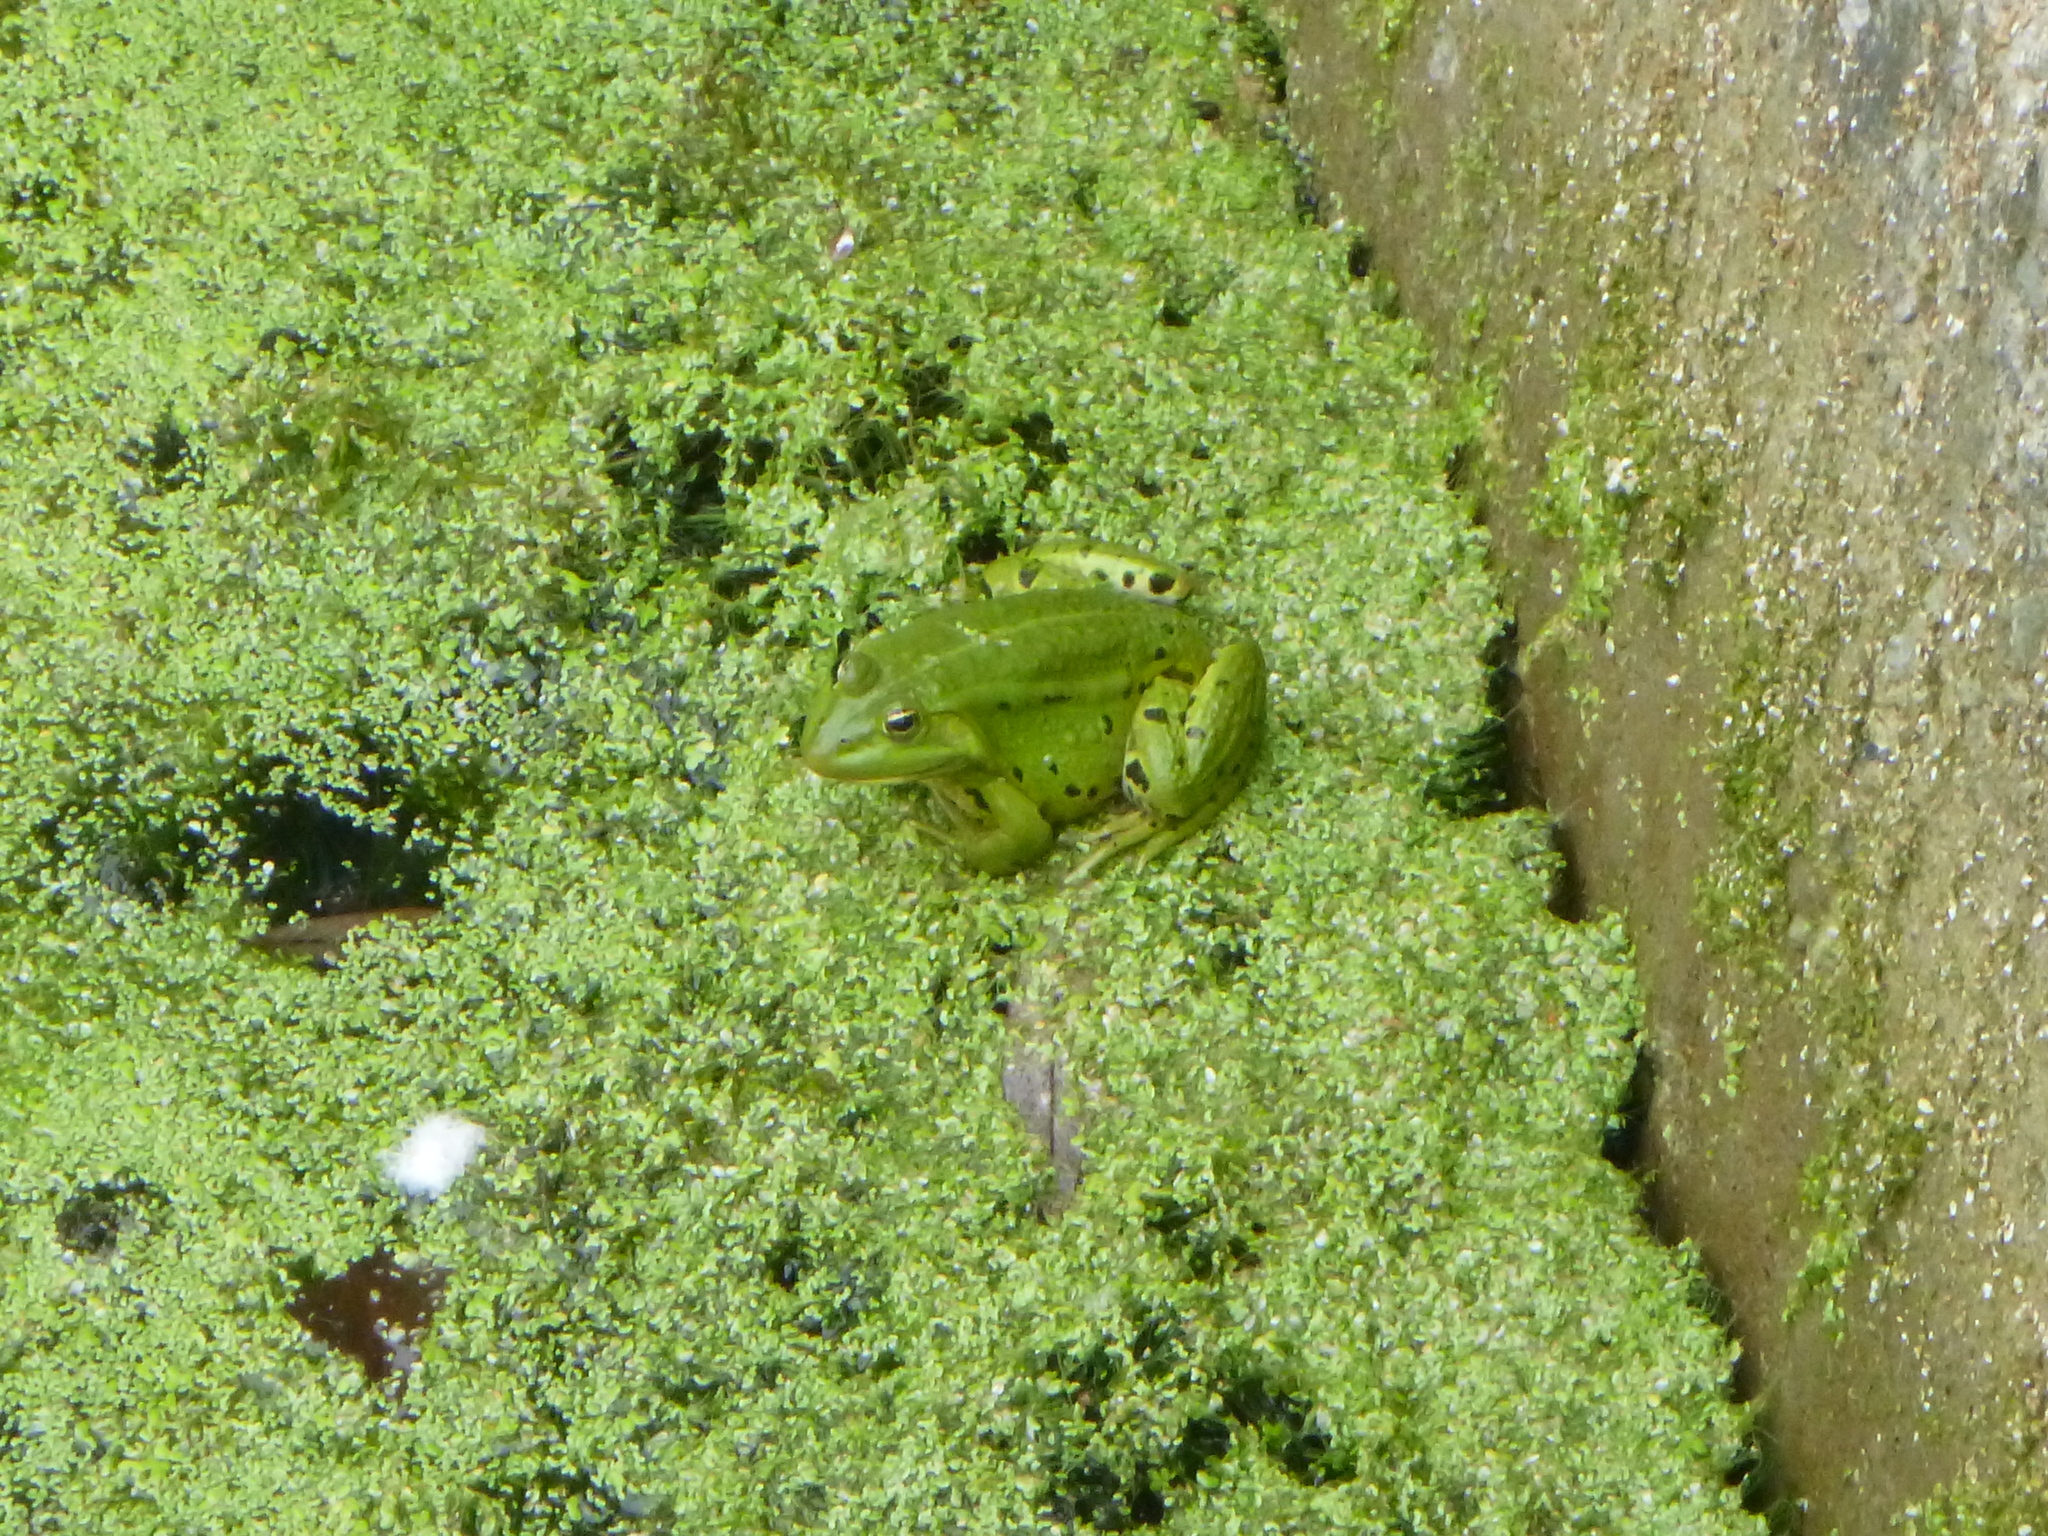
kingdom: Animalia
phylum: Chordata
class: Amphibia
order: Anura
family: Ranidae
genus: Pelophylax
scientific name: Pelophylax
